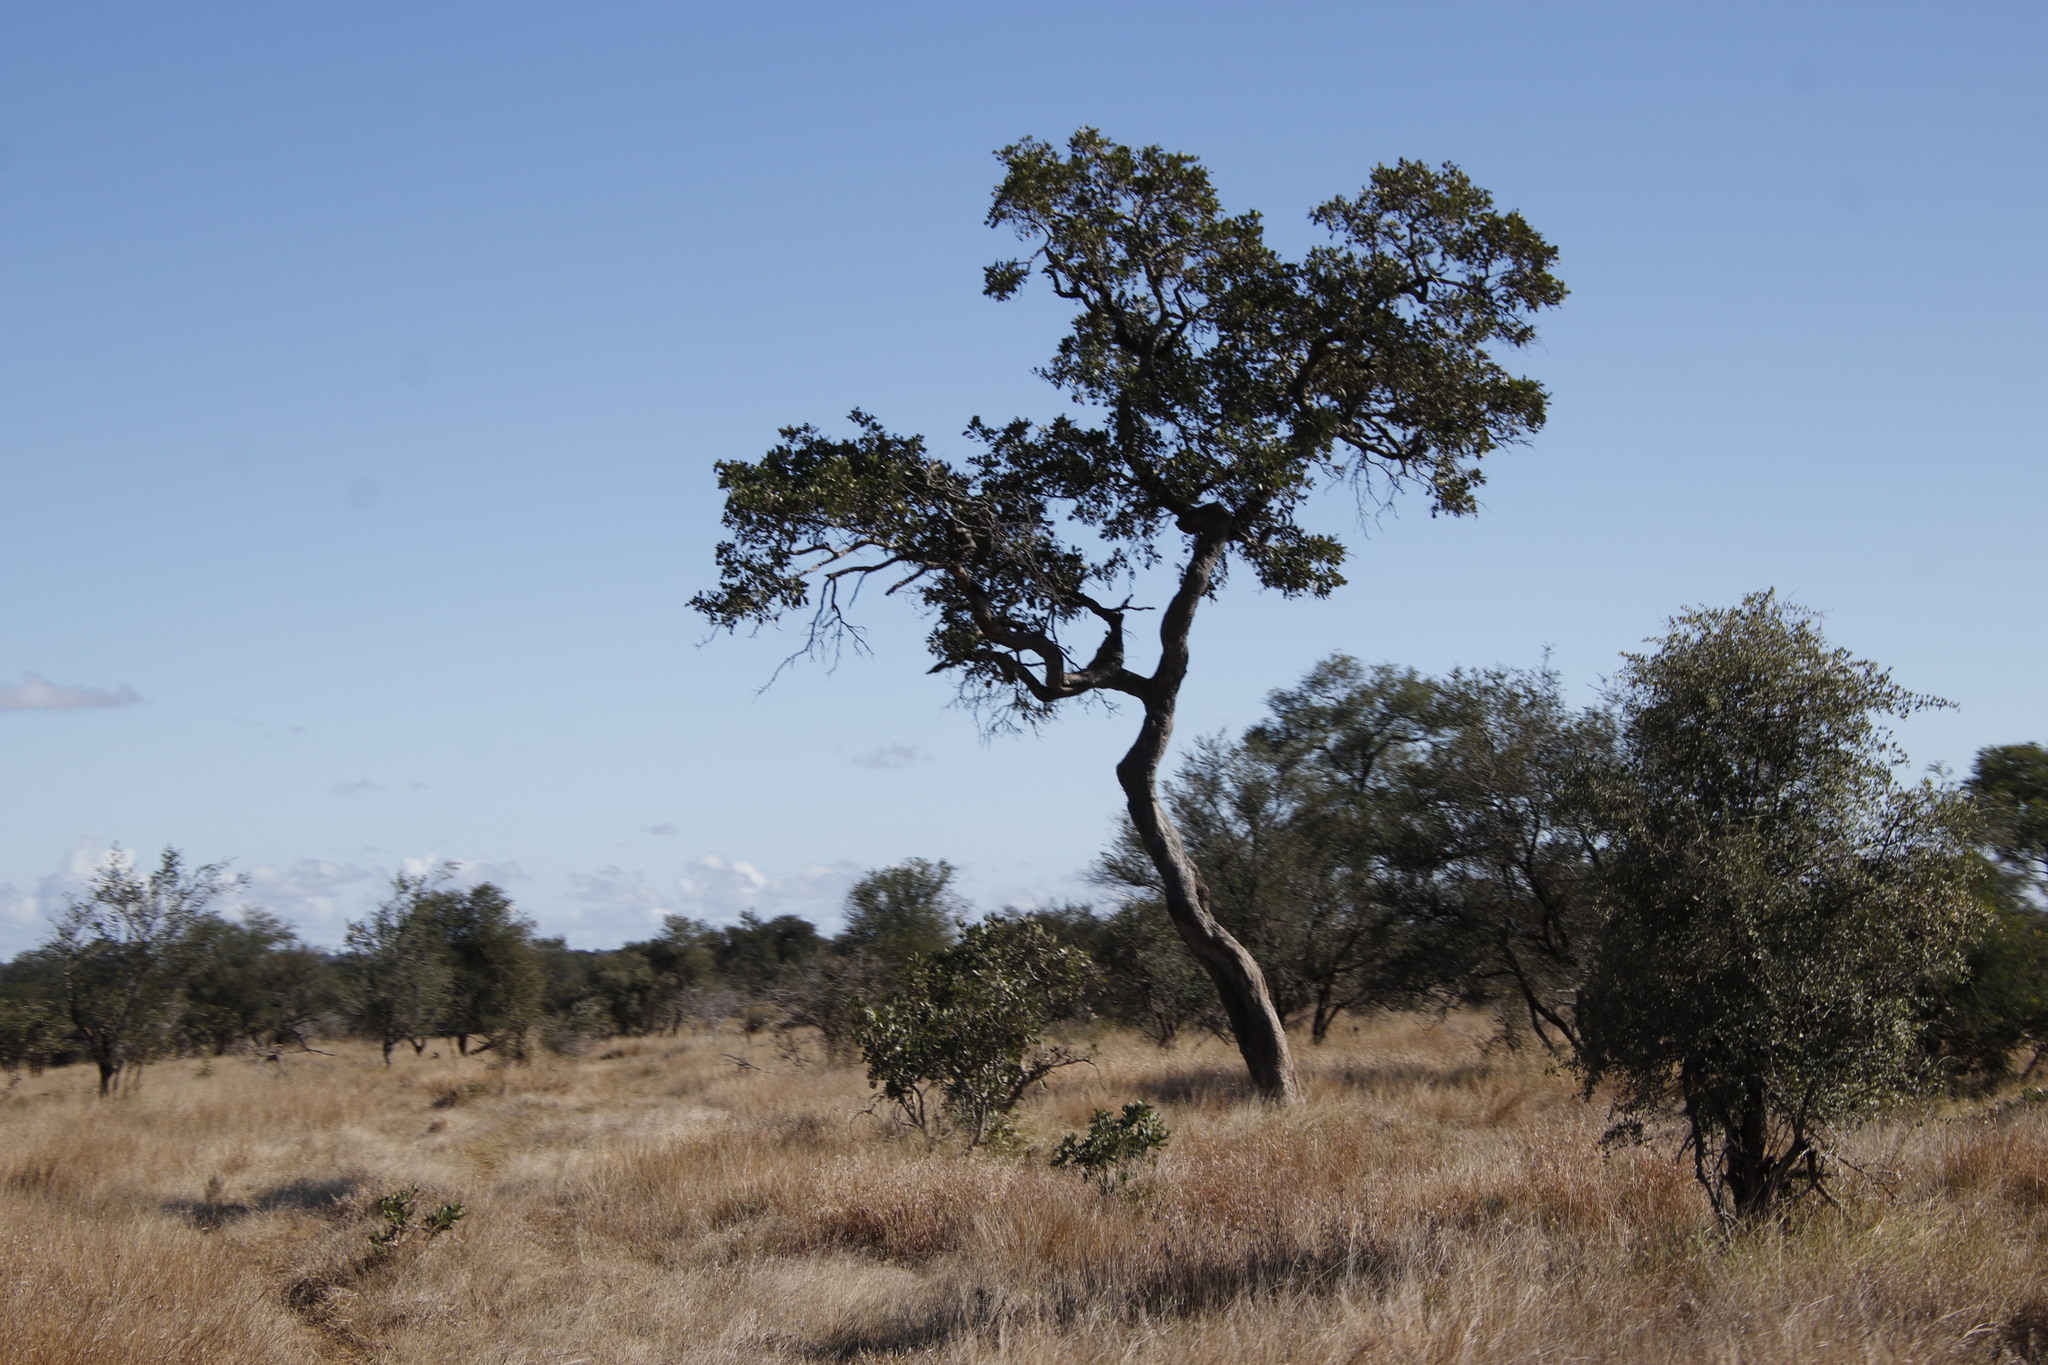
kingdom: Plantae
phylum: Tracheophyta
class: Magnoliopsida
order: Fabales
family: Fabaceae
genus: Philenoptera
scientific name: Philenoptera violacea
